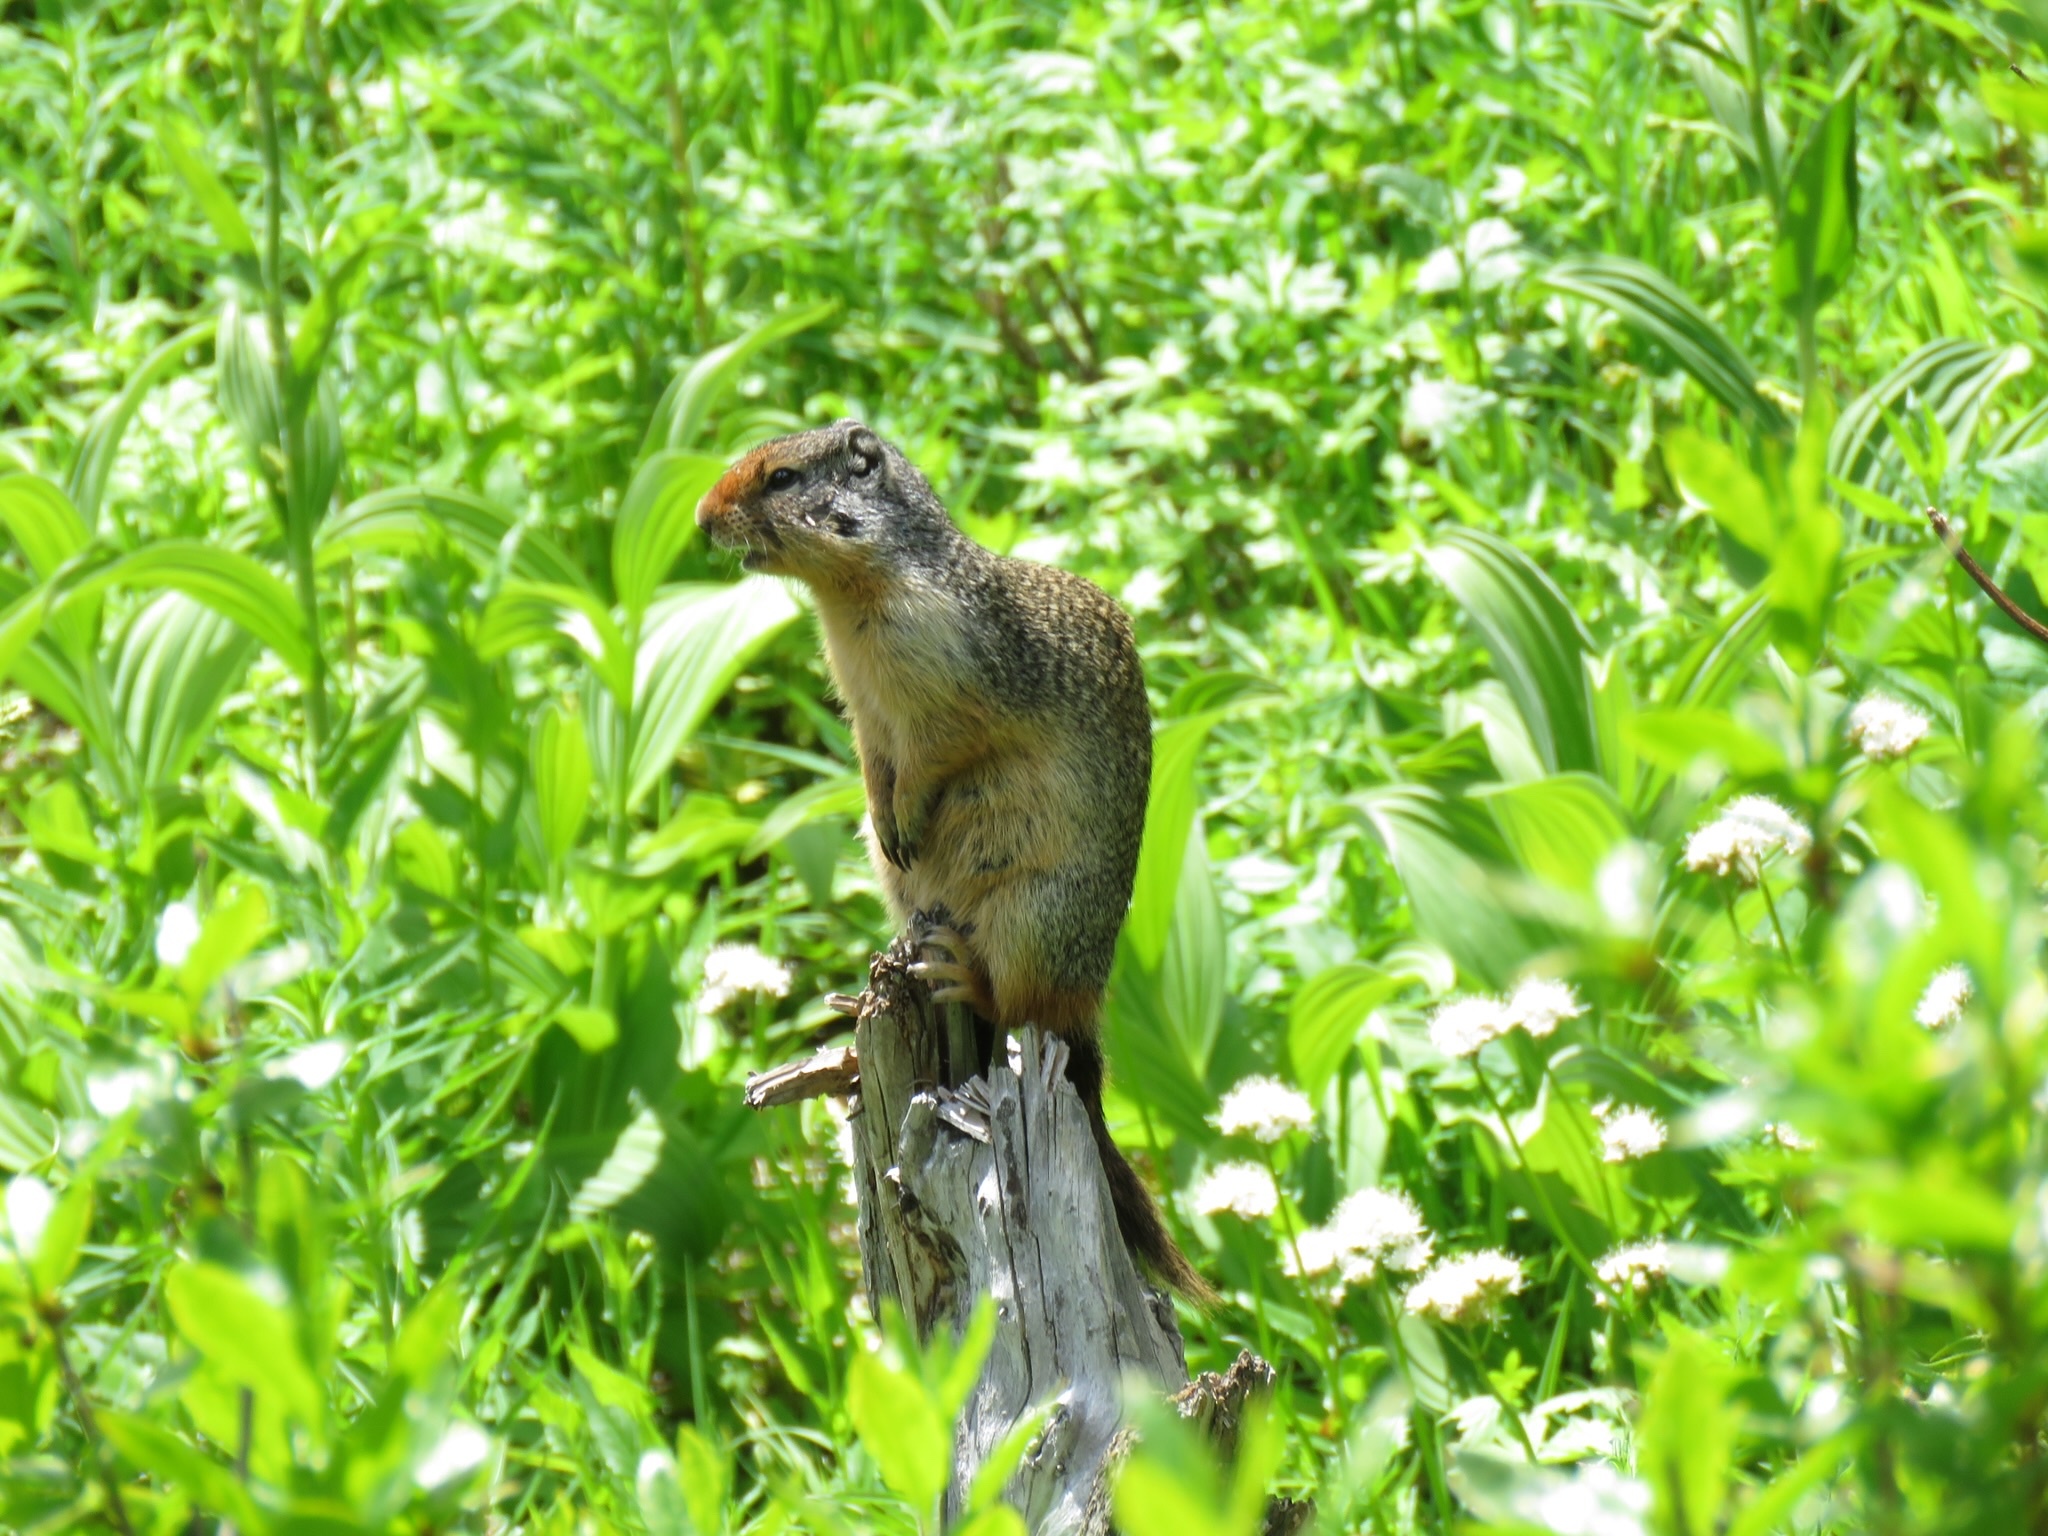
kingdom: Animalia
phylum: Chordata
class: Mammalia
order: Rodentia
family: Sciuridae
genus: Urocitellus
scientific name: Urocitellus columbianus
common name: Columbian ground squirrel
